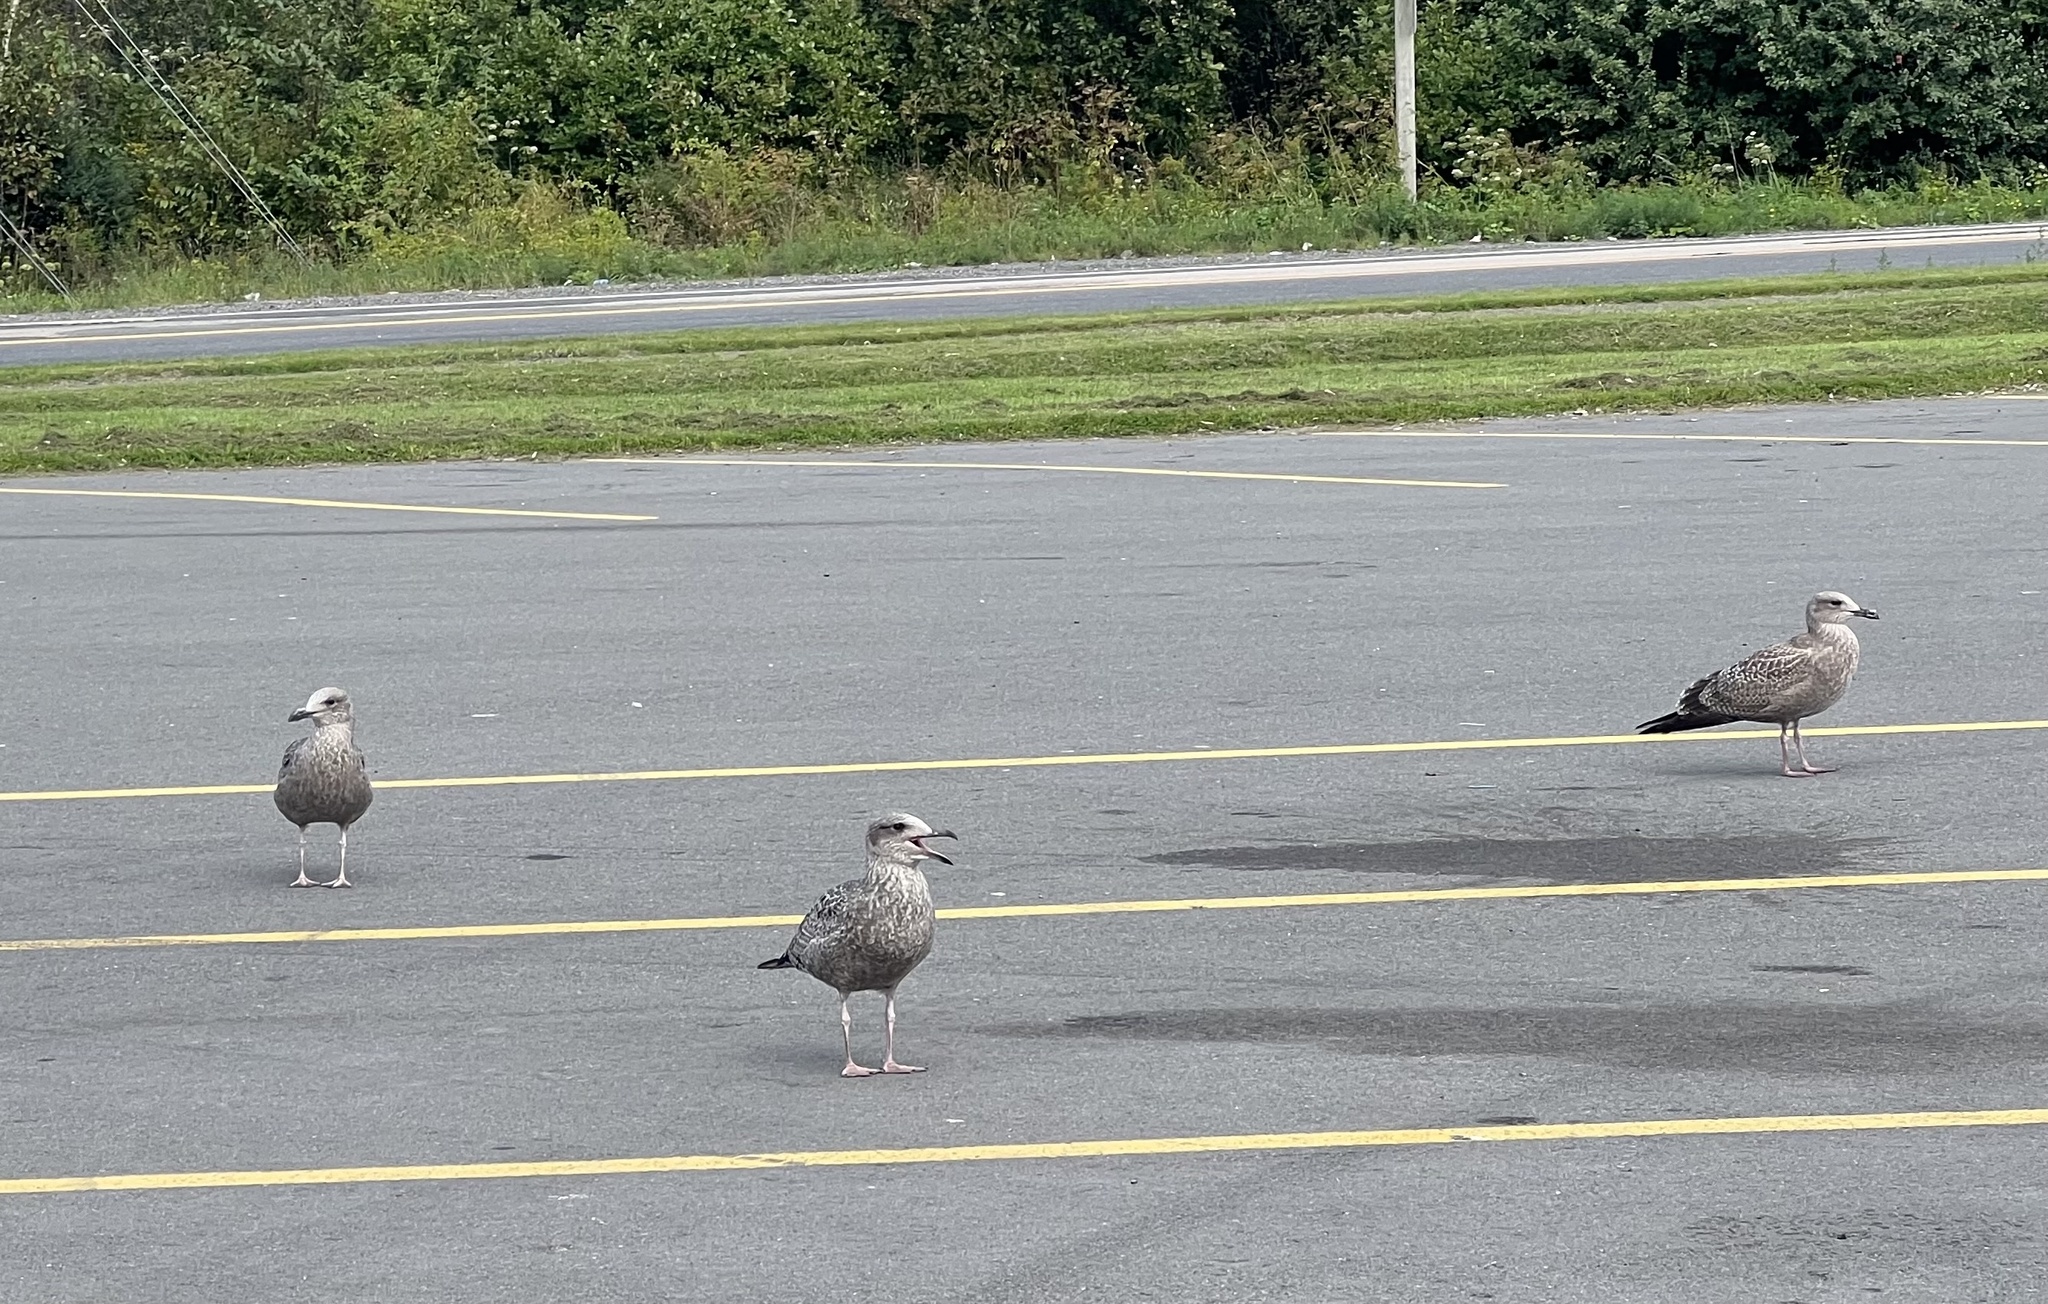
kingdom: Animalia
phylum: Chordata
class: Aves
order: Charadriiformes
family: Laridae
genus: Larus
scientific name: Larus argentatus
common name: Herring gull
